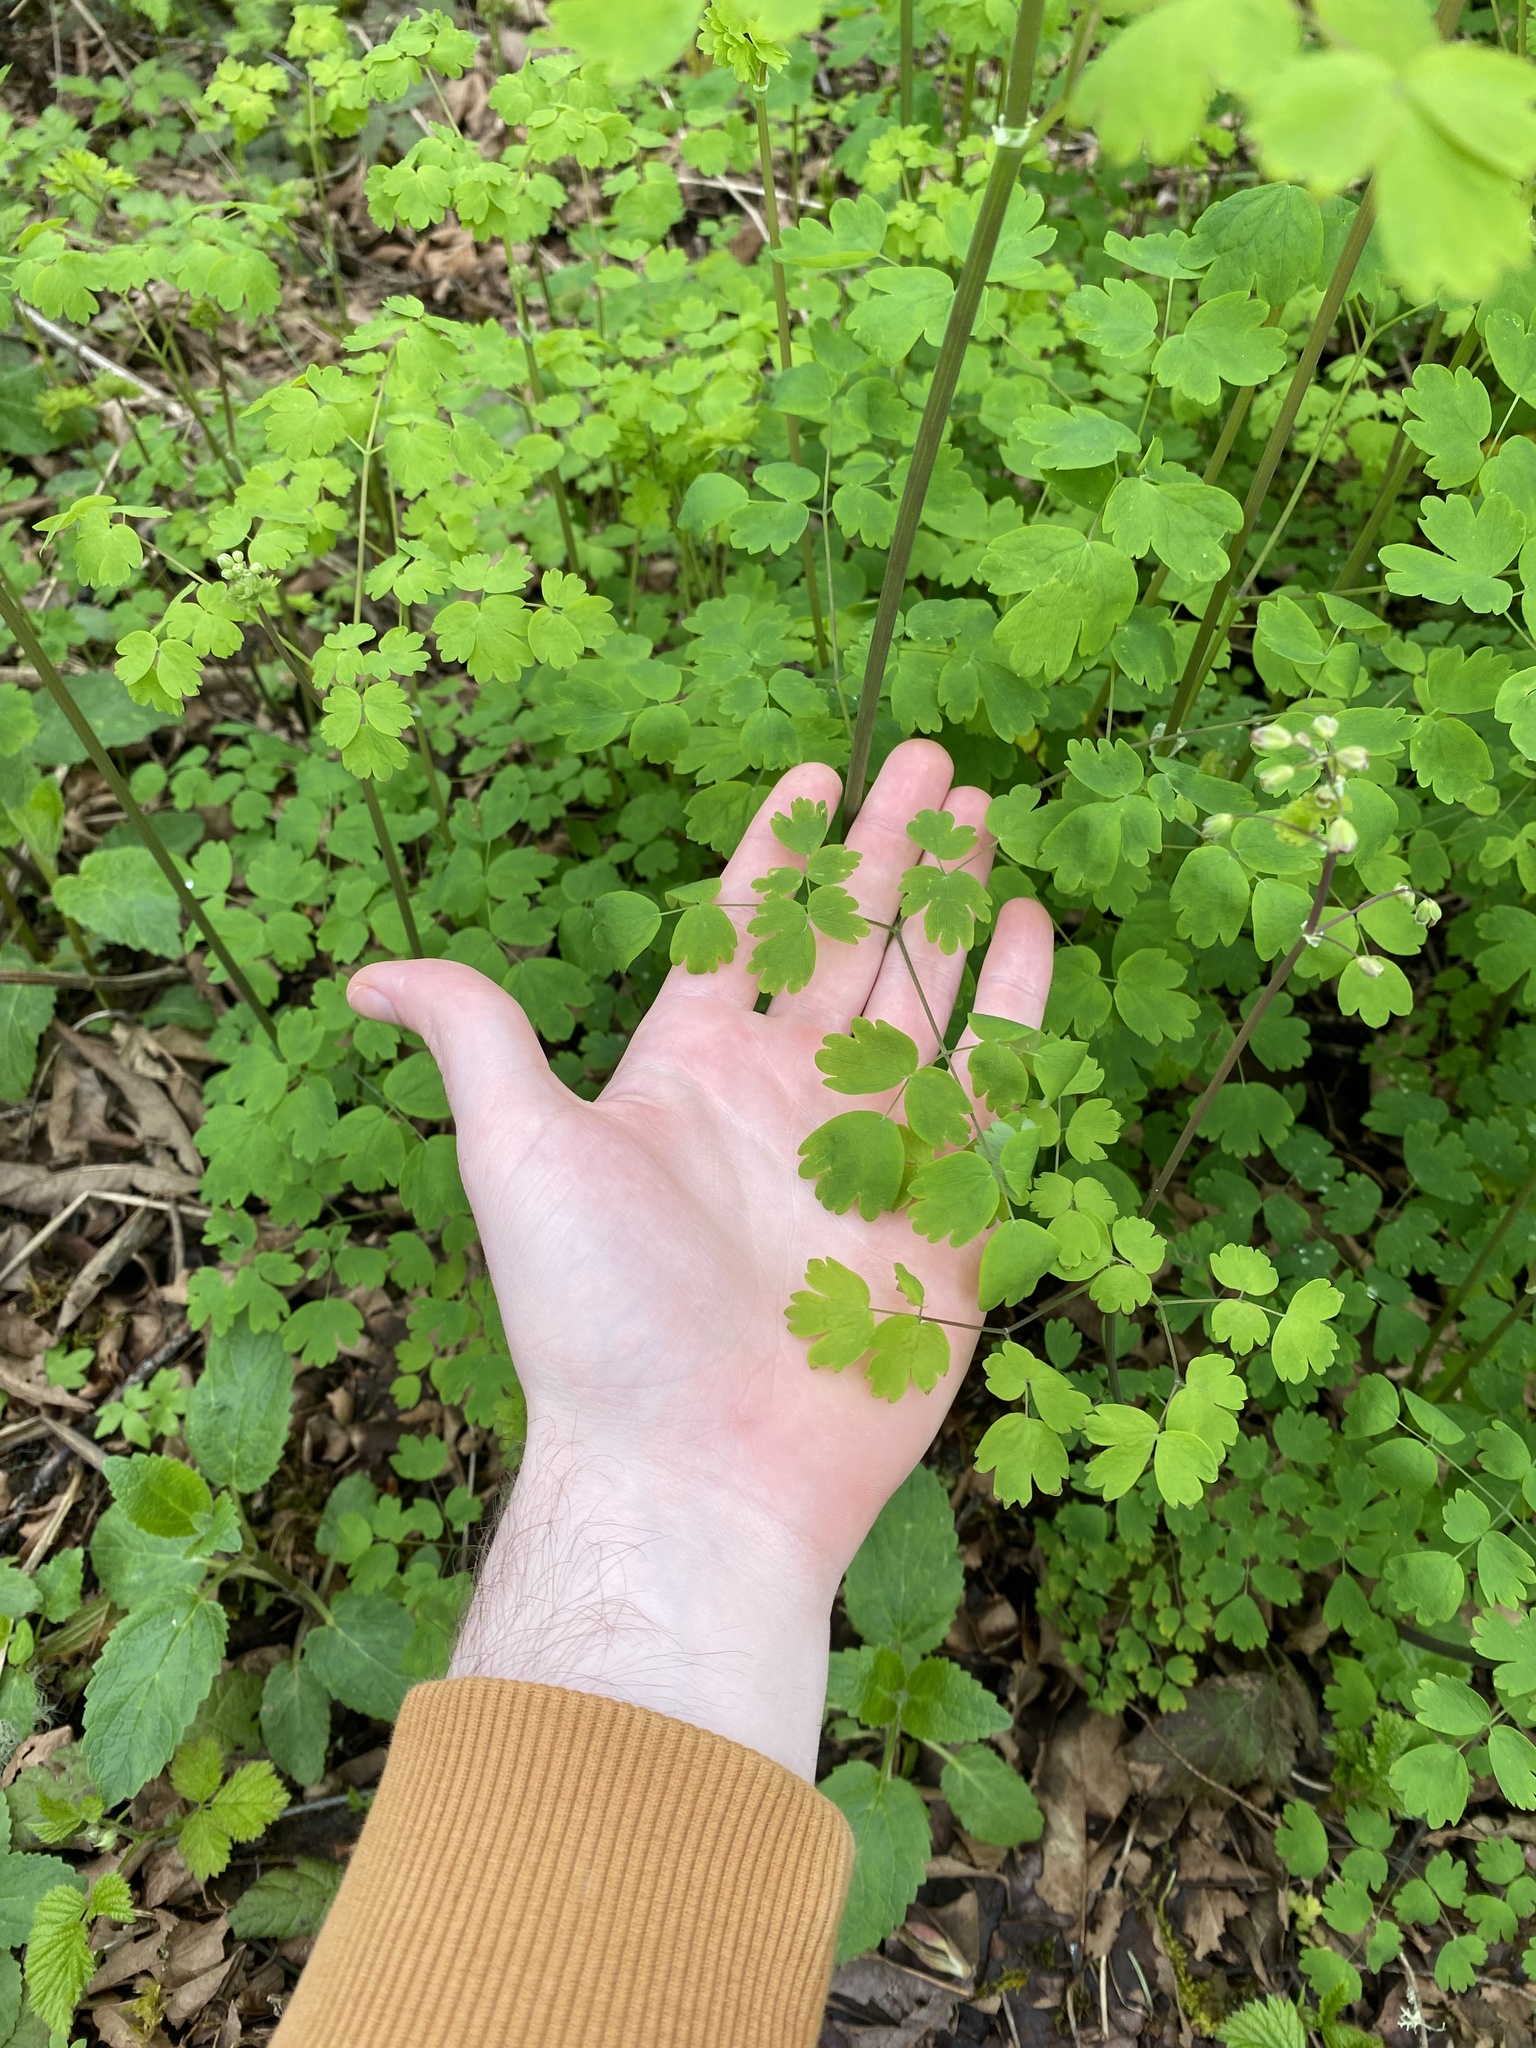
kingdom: Plantae
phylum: Tracheophyta
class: Magnoliopsida
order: Ranunculales
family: Ranunculaceae
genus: Thalictrum
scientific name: Thalictrum occidentale
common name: Western meadow-rue
